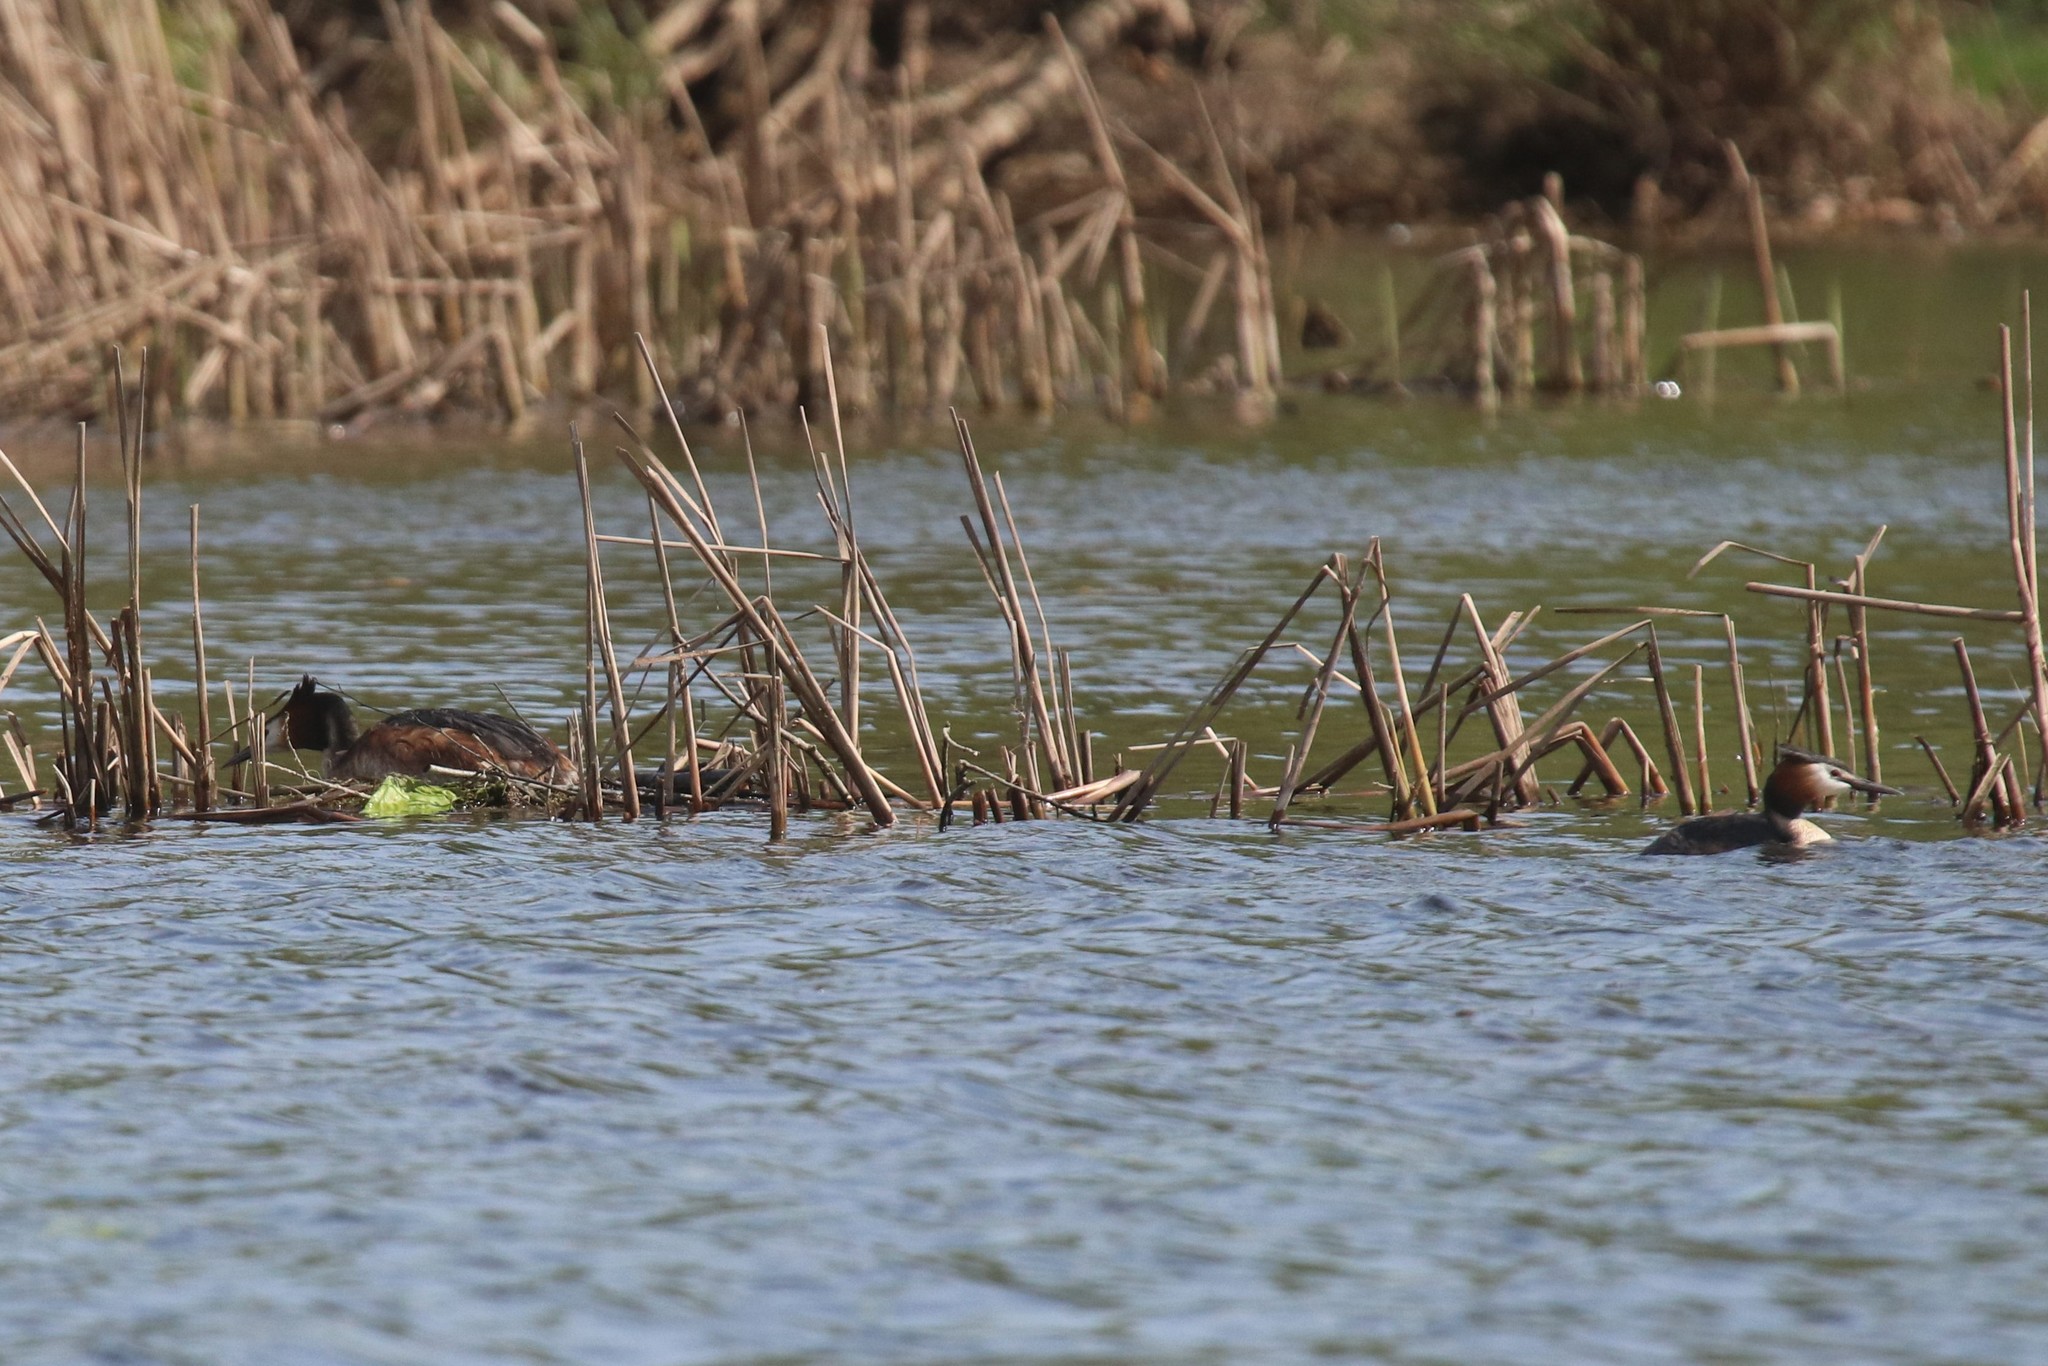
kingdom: Animalia
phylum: Chordata
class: Aves
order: Podicipediformes
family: Podicipedidae
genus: Podiceps
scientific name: Podiceps cristatus
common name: Great crested grebe
